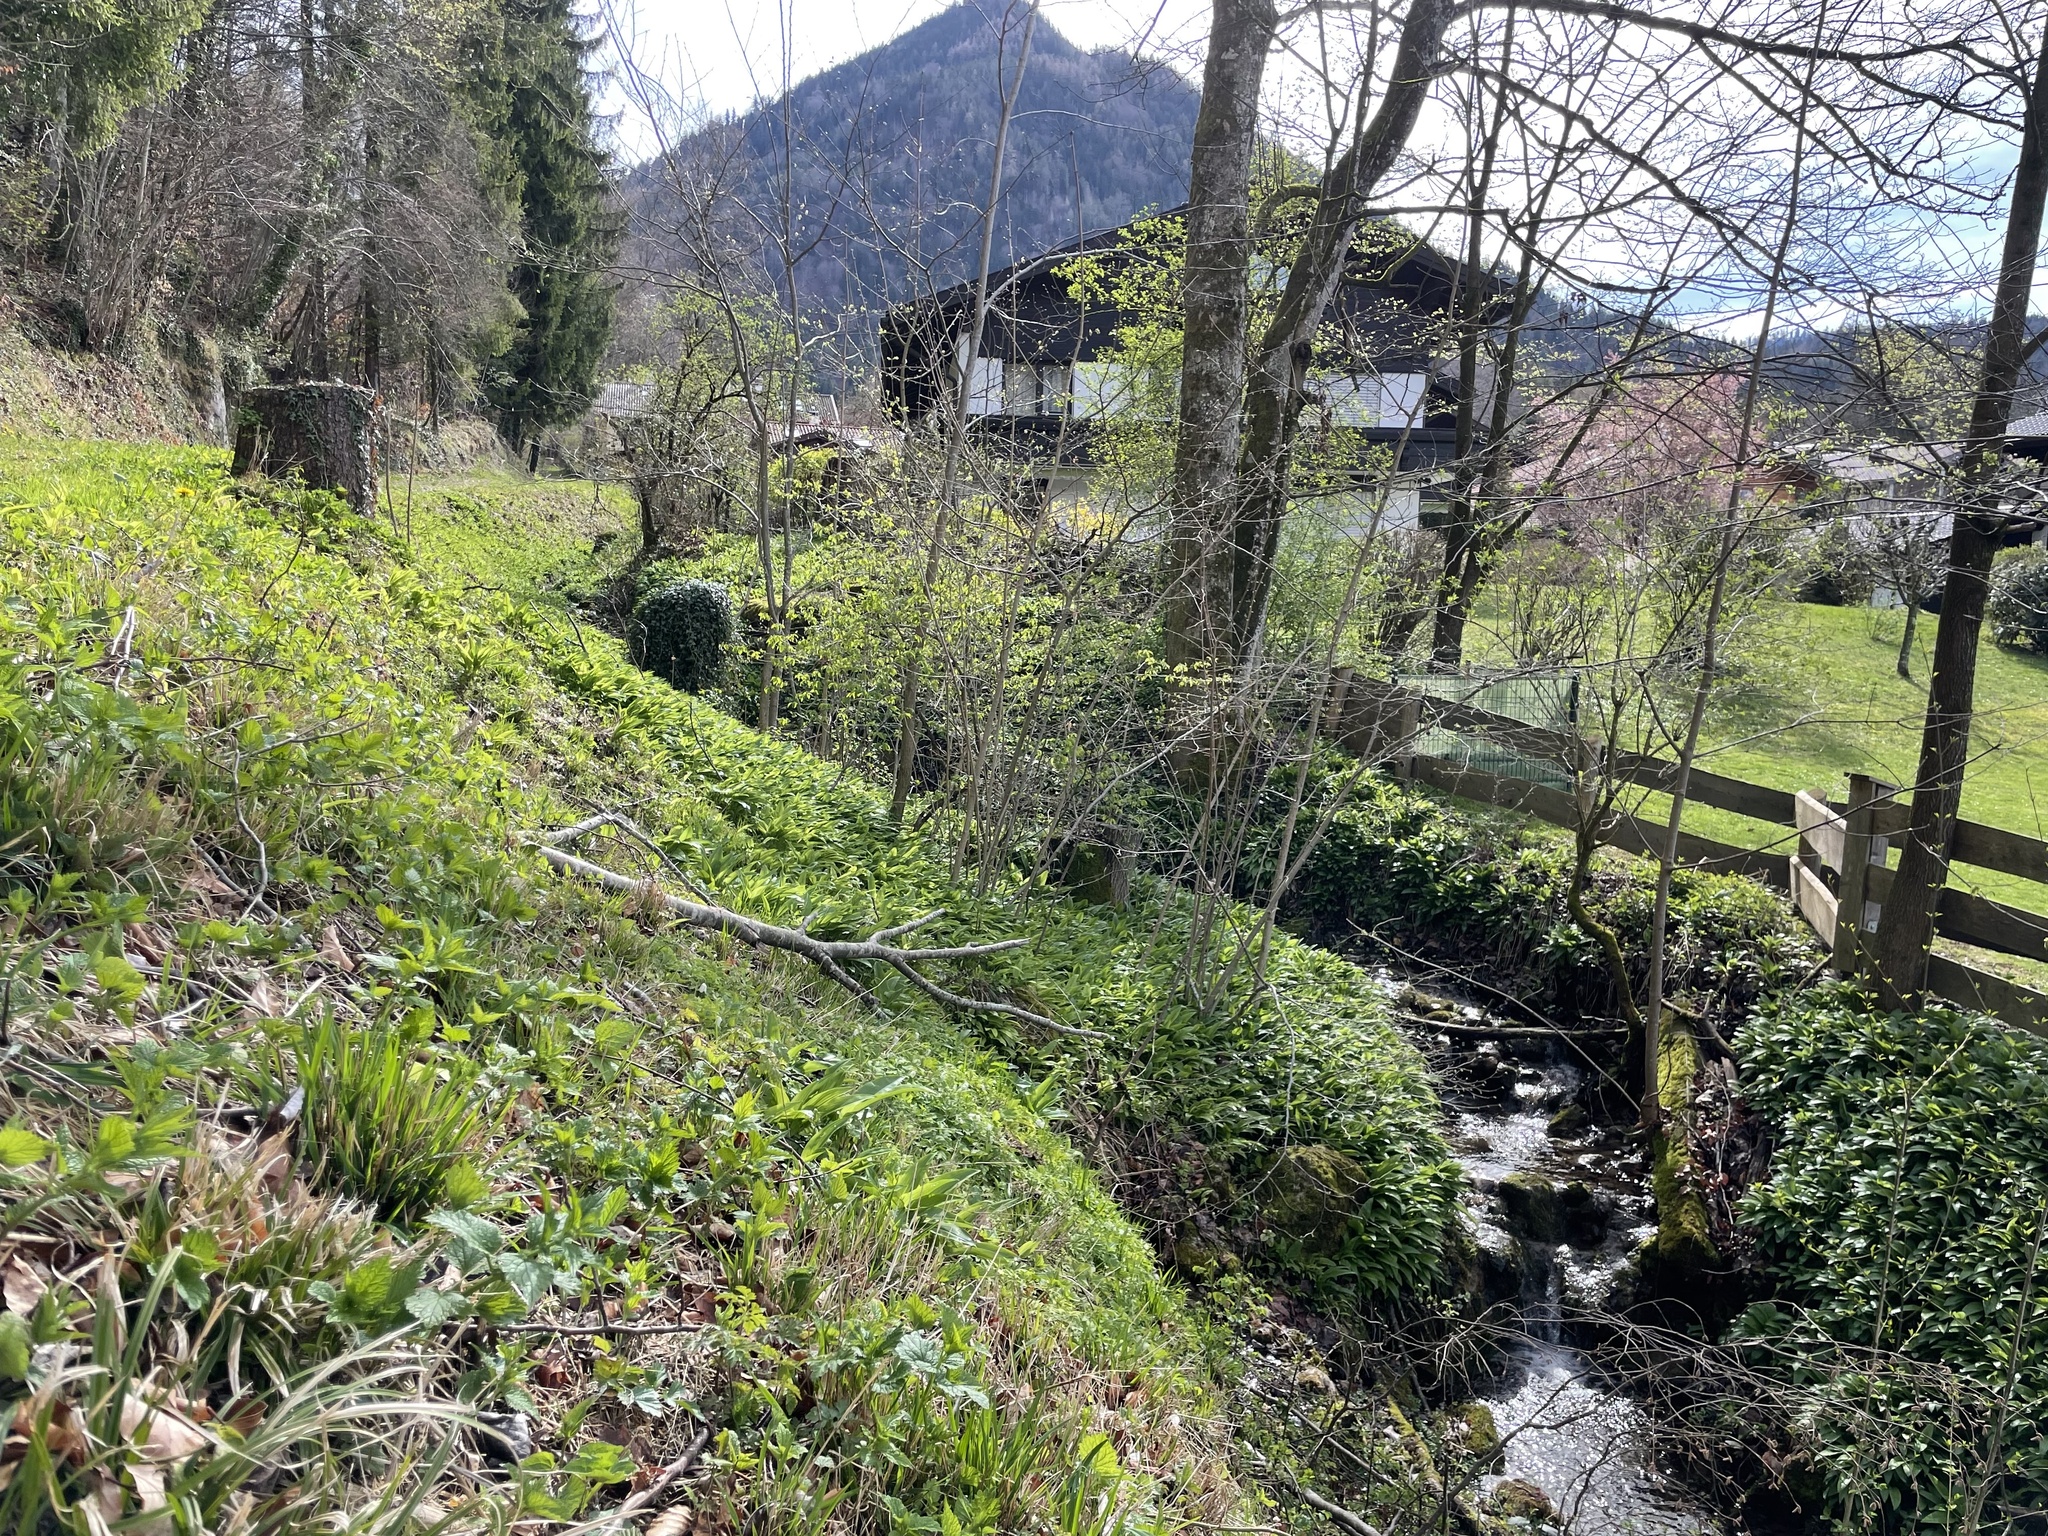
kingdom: Plantae
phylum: Tracheophyta
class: Liliopsida
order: Asparagales
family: Amaryllidaceae
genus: Allium
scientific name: Allium ursinum
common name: Ramsons
